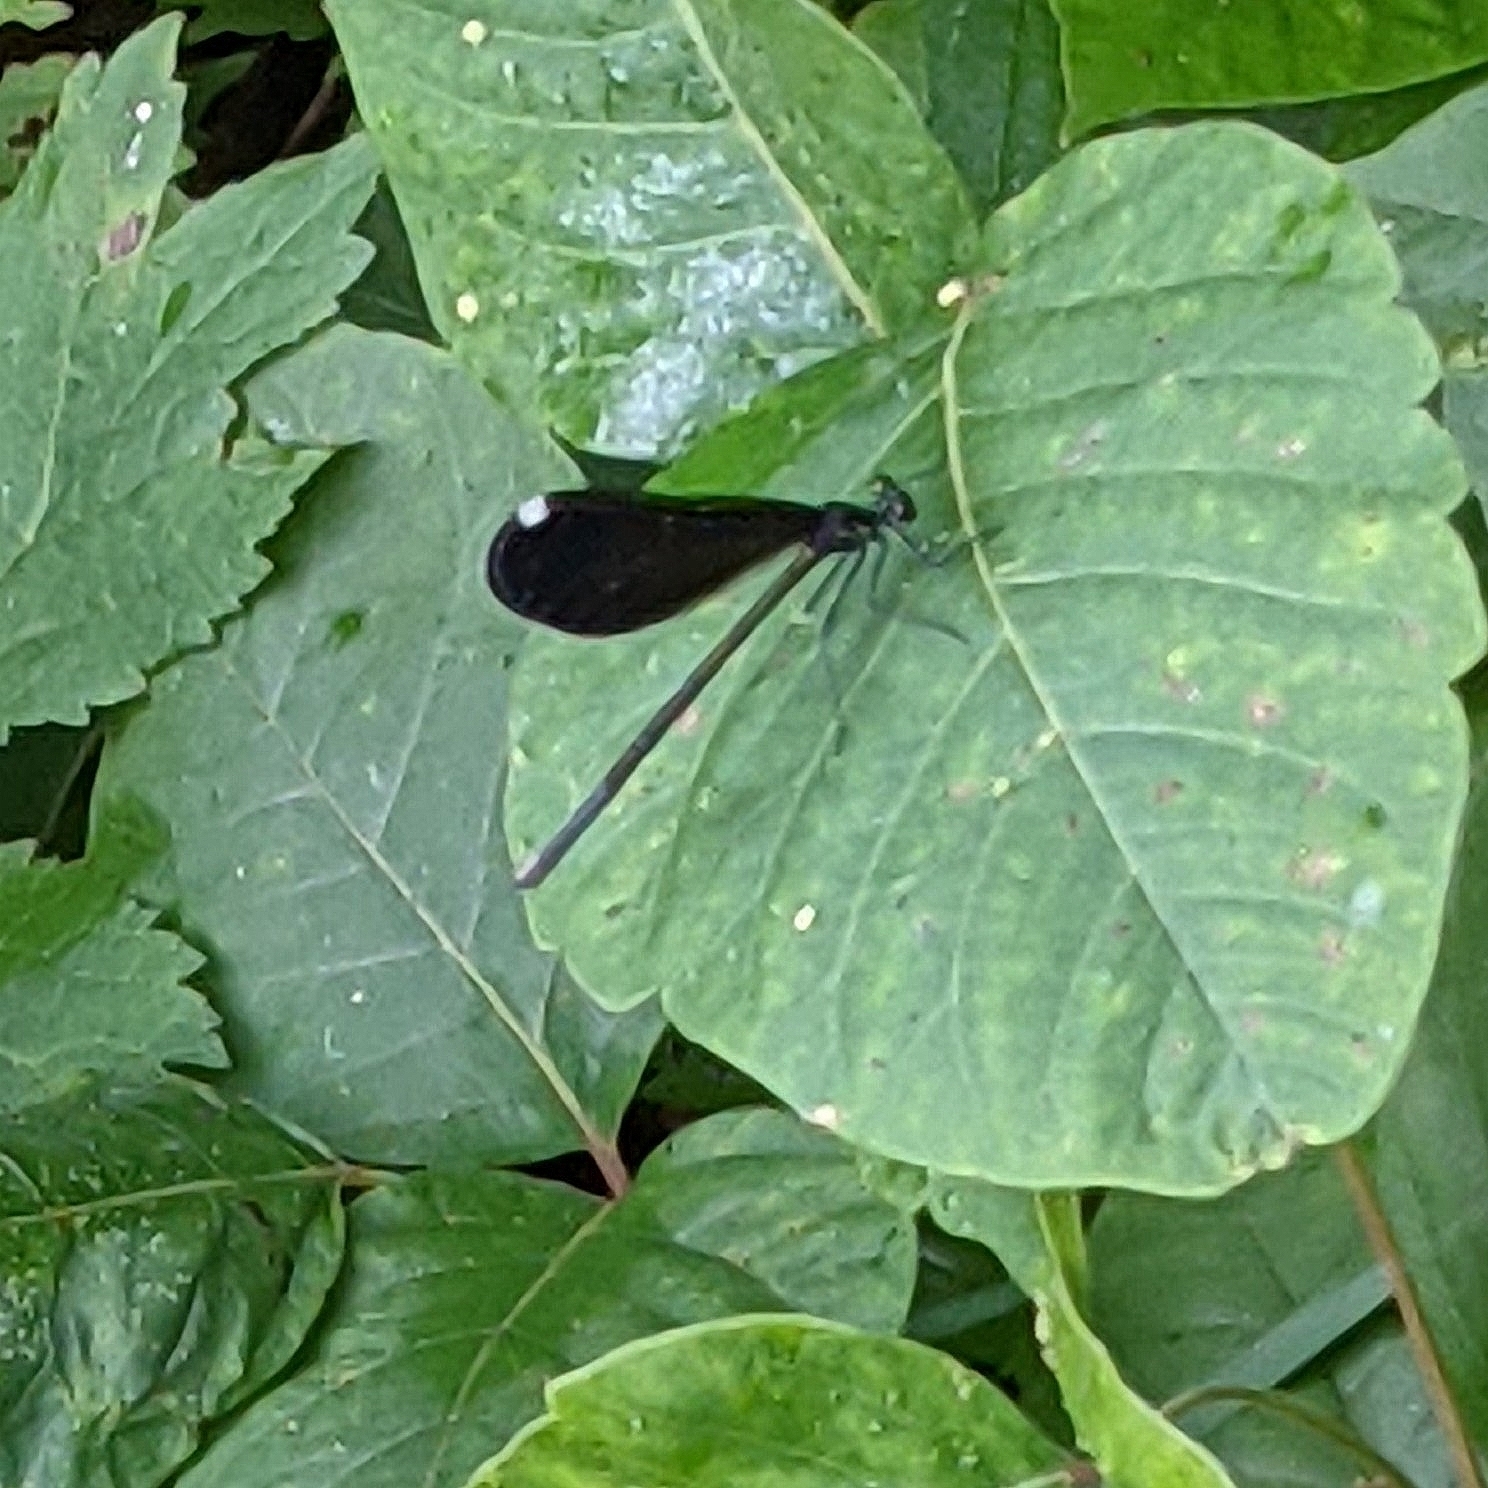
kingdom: Animalia
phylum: Arthropoda
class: Insecta
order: Odonata
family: Calopterygidae
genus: Calopteryx
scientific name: Calopteryx maculata
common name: Ebony jewelwing
